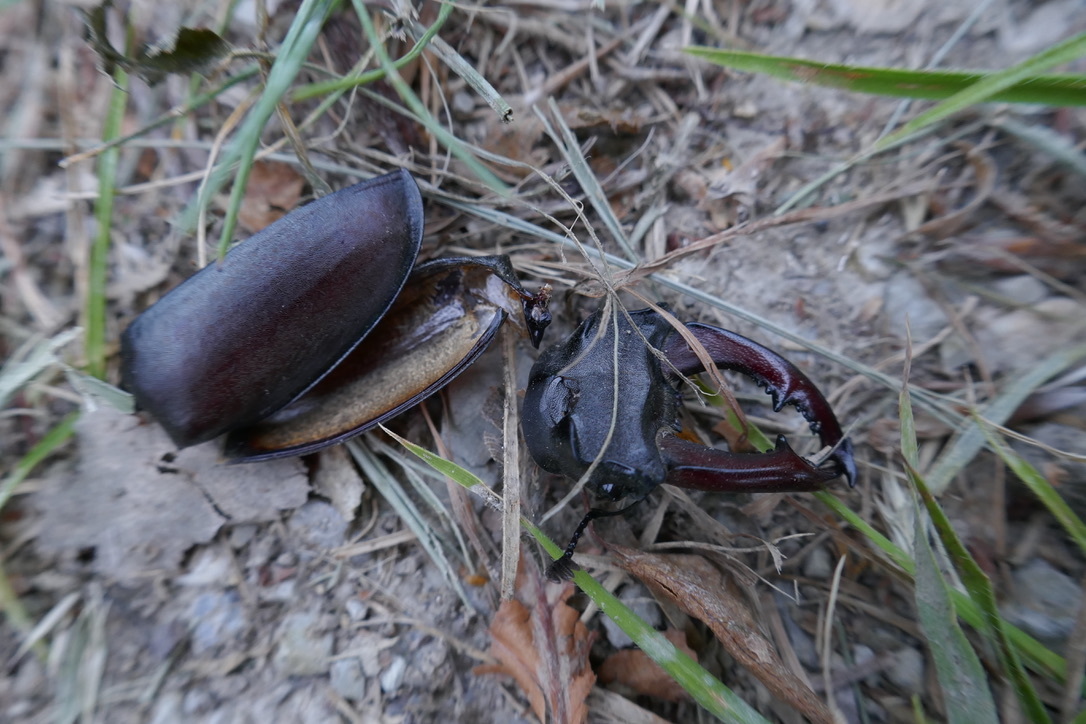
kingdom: Animalia
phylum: Arthropoda
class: Insecta
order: Coleoptera
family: Lucanidae
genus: Lucanus
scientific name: Lucanus cervus
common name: Stag beetle
